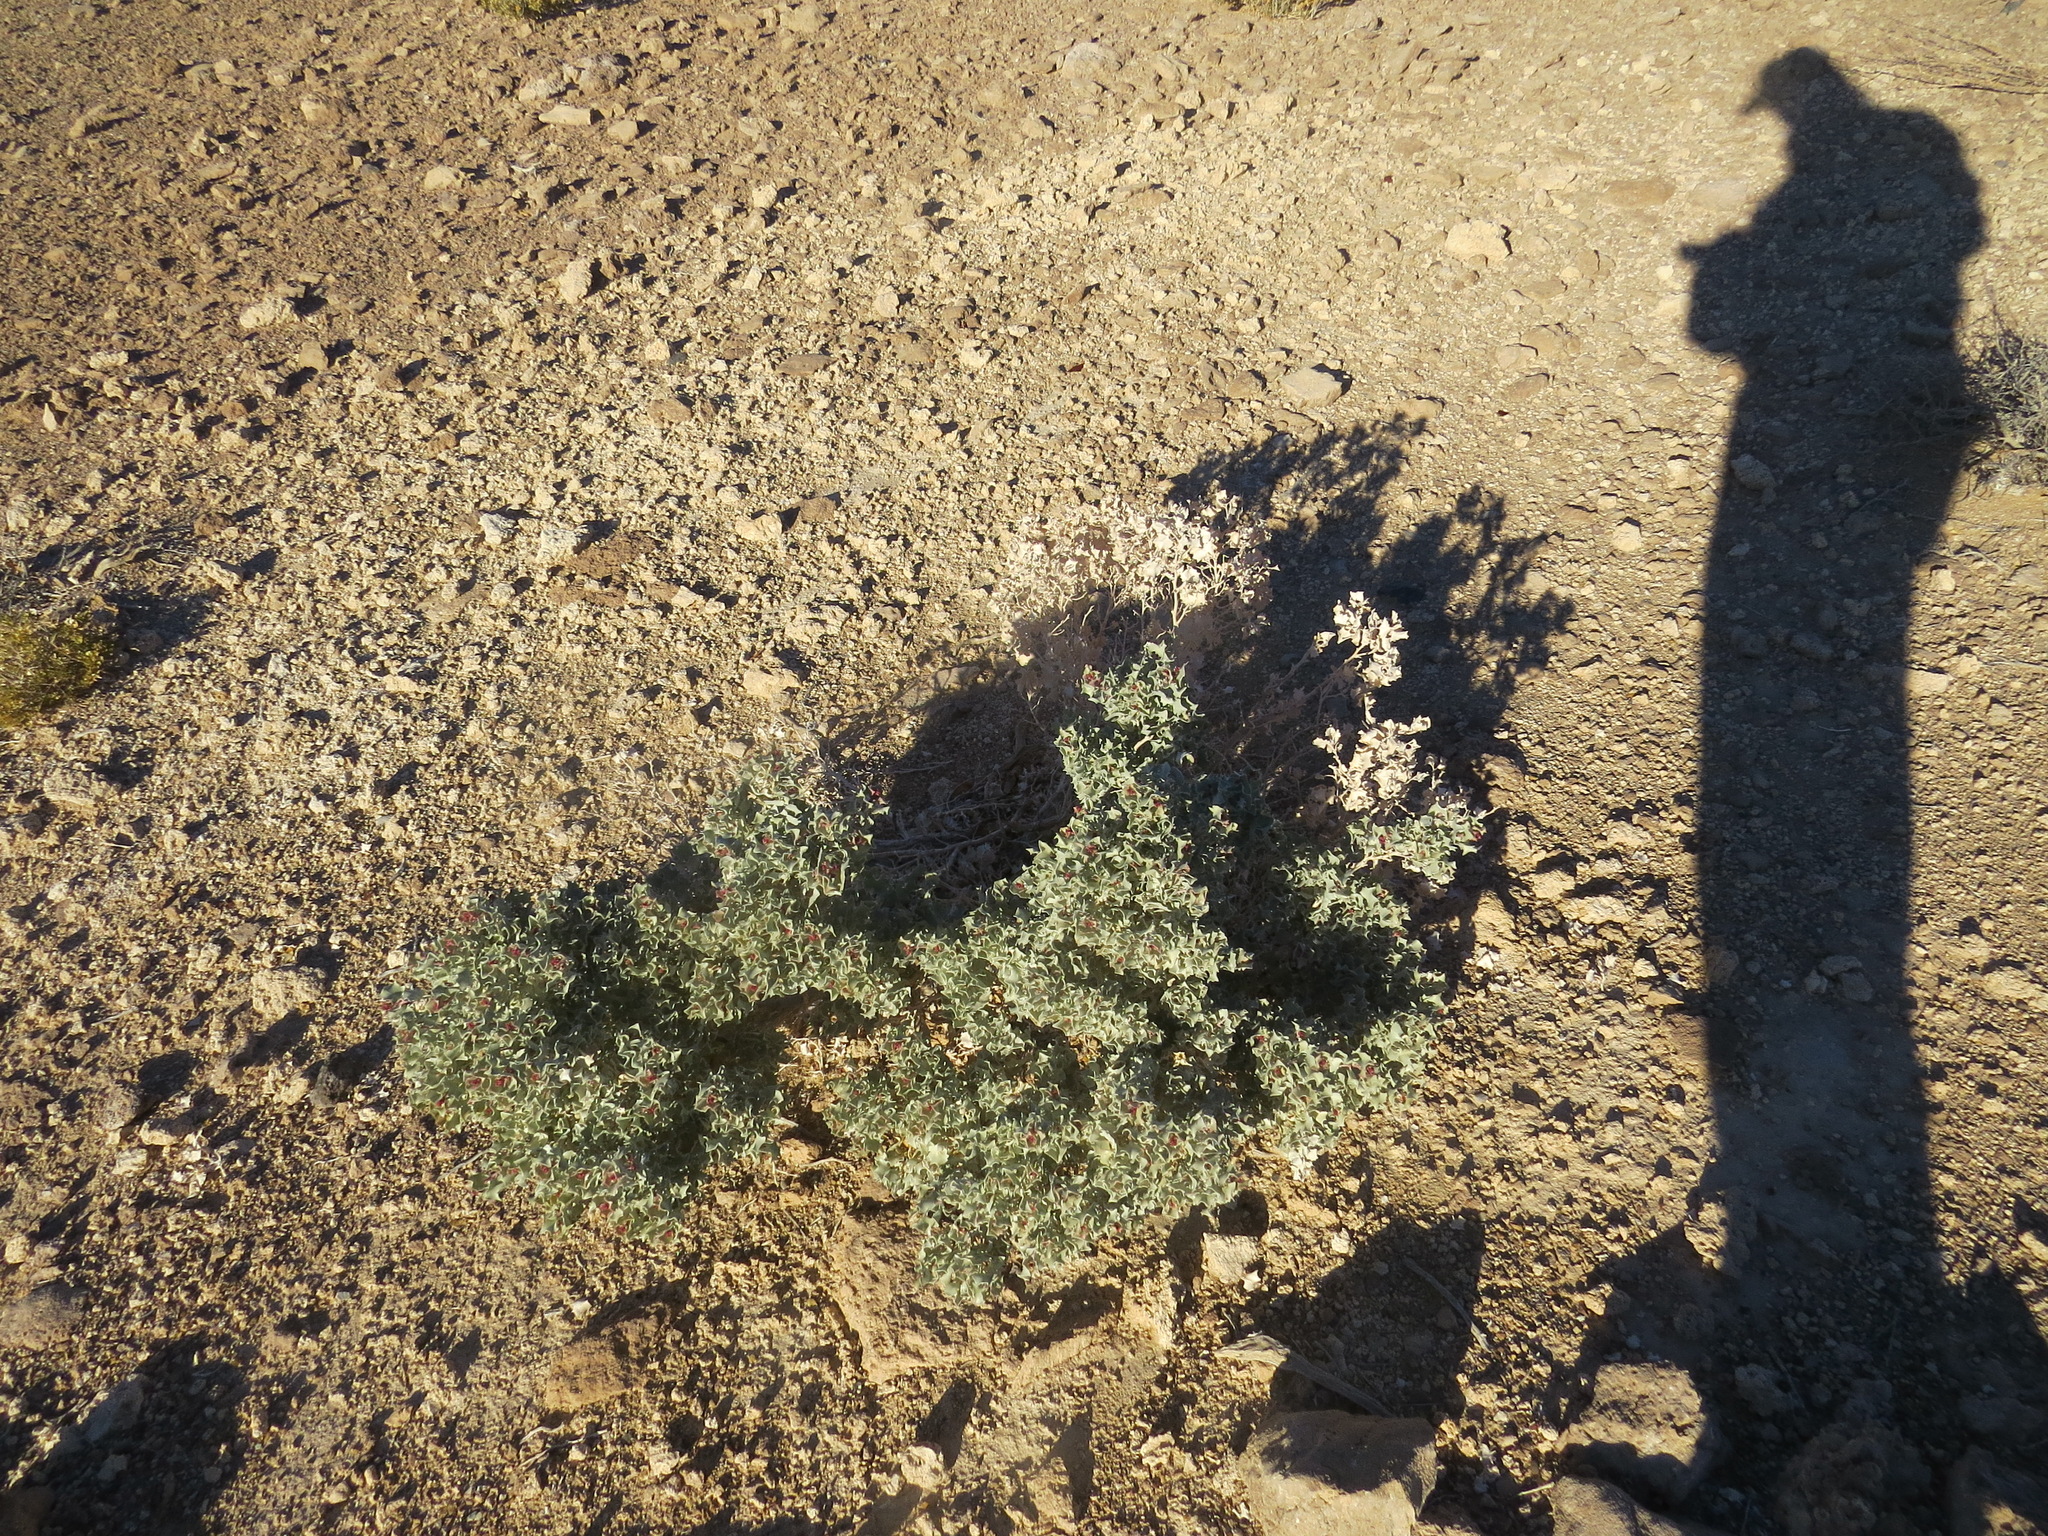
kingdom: Plantae
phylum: Tracheophyta
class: Magnoliopsida
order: Caryophyllales
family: Amaranthaceae
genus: Atriplex
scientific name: Atriplex hymenelytra
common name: Desert-holly
